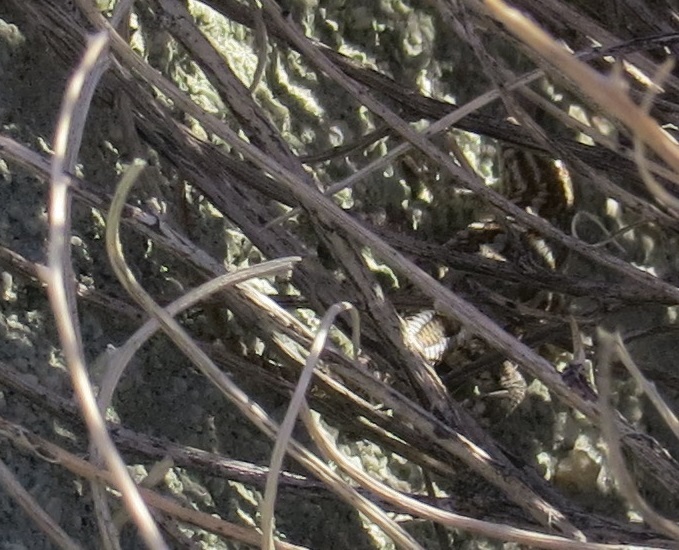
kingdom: Animalia
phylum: Chordata
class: Squamata
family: Phrynosomatidae
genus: Uta
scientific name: Uta stansburiana
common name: Side-blotched lizard
